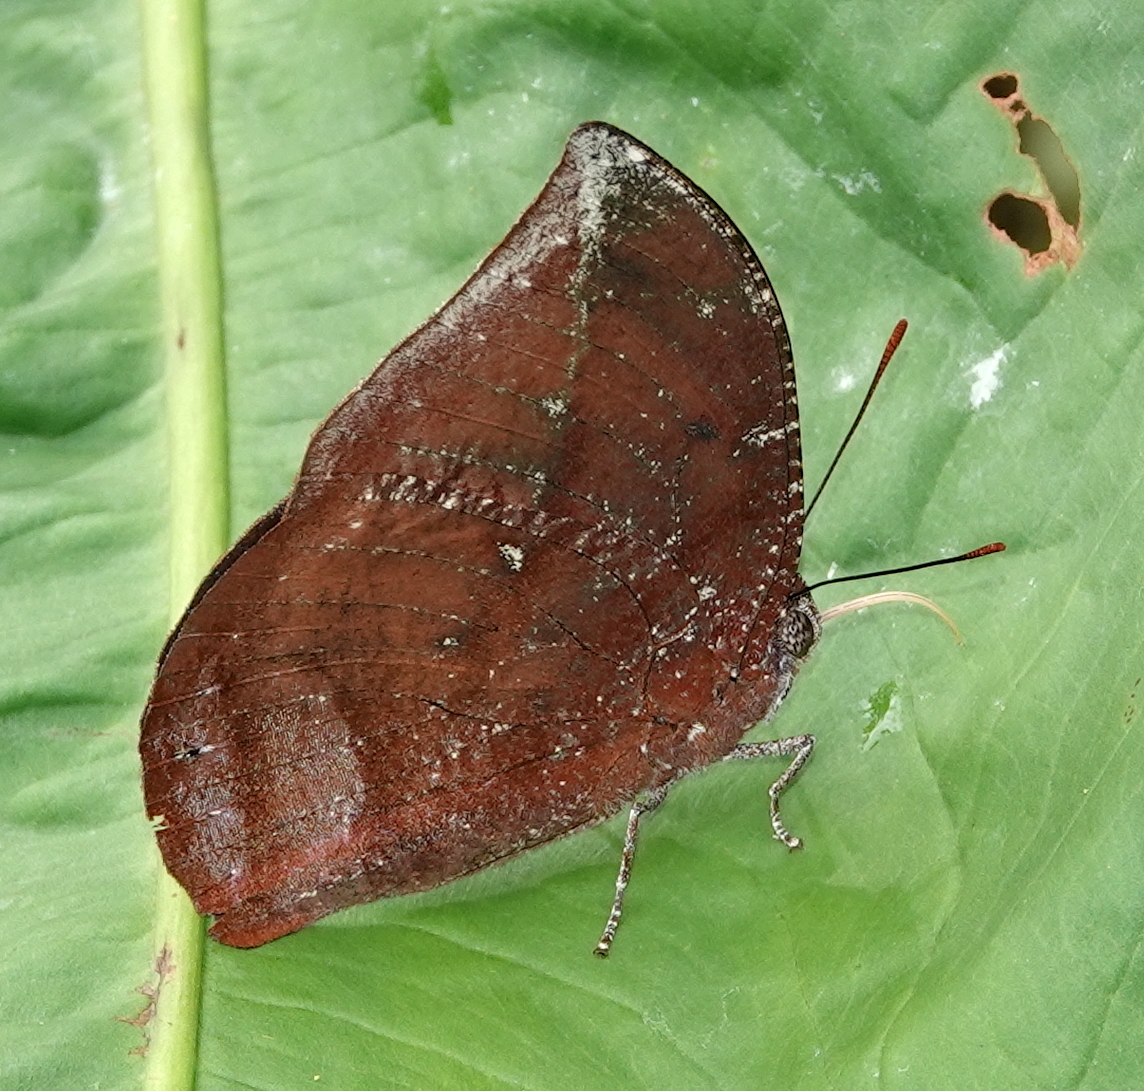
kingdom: Animalia
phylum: Arthropoda
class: Insecta
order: Lepidoptera
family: Nymphalidae
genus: Memphis
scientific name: Memphis lyceus
